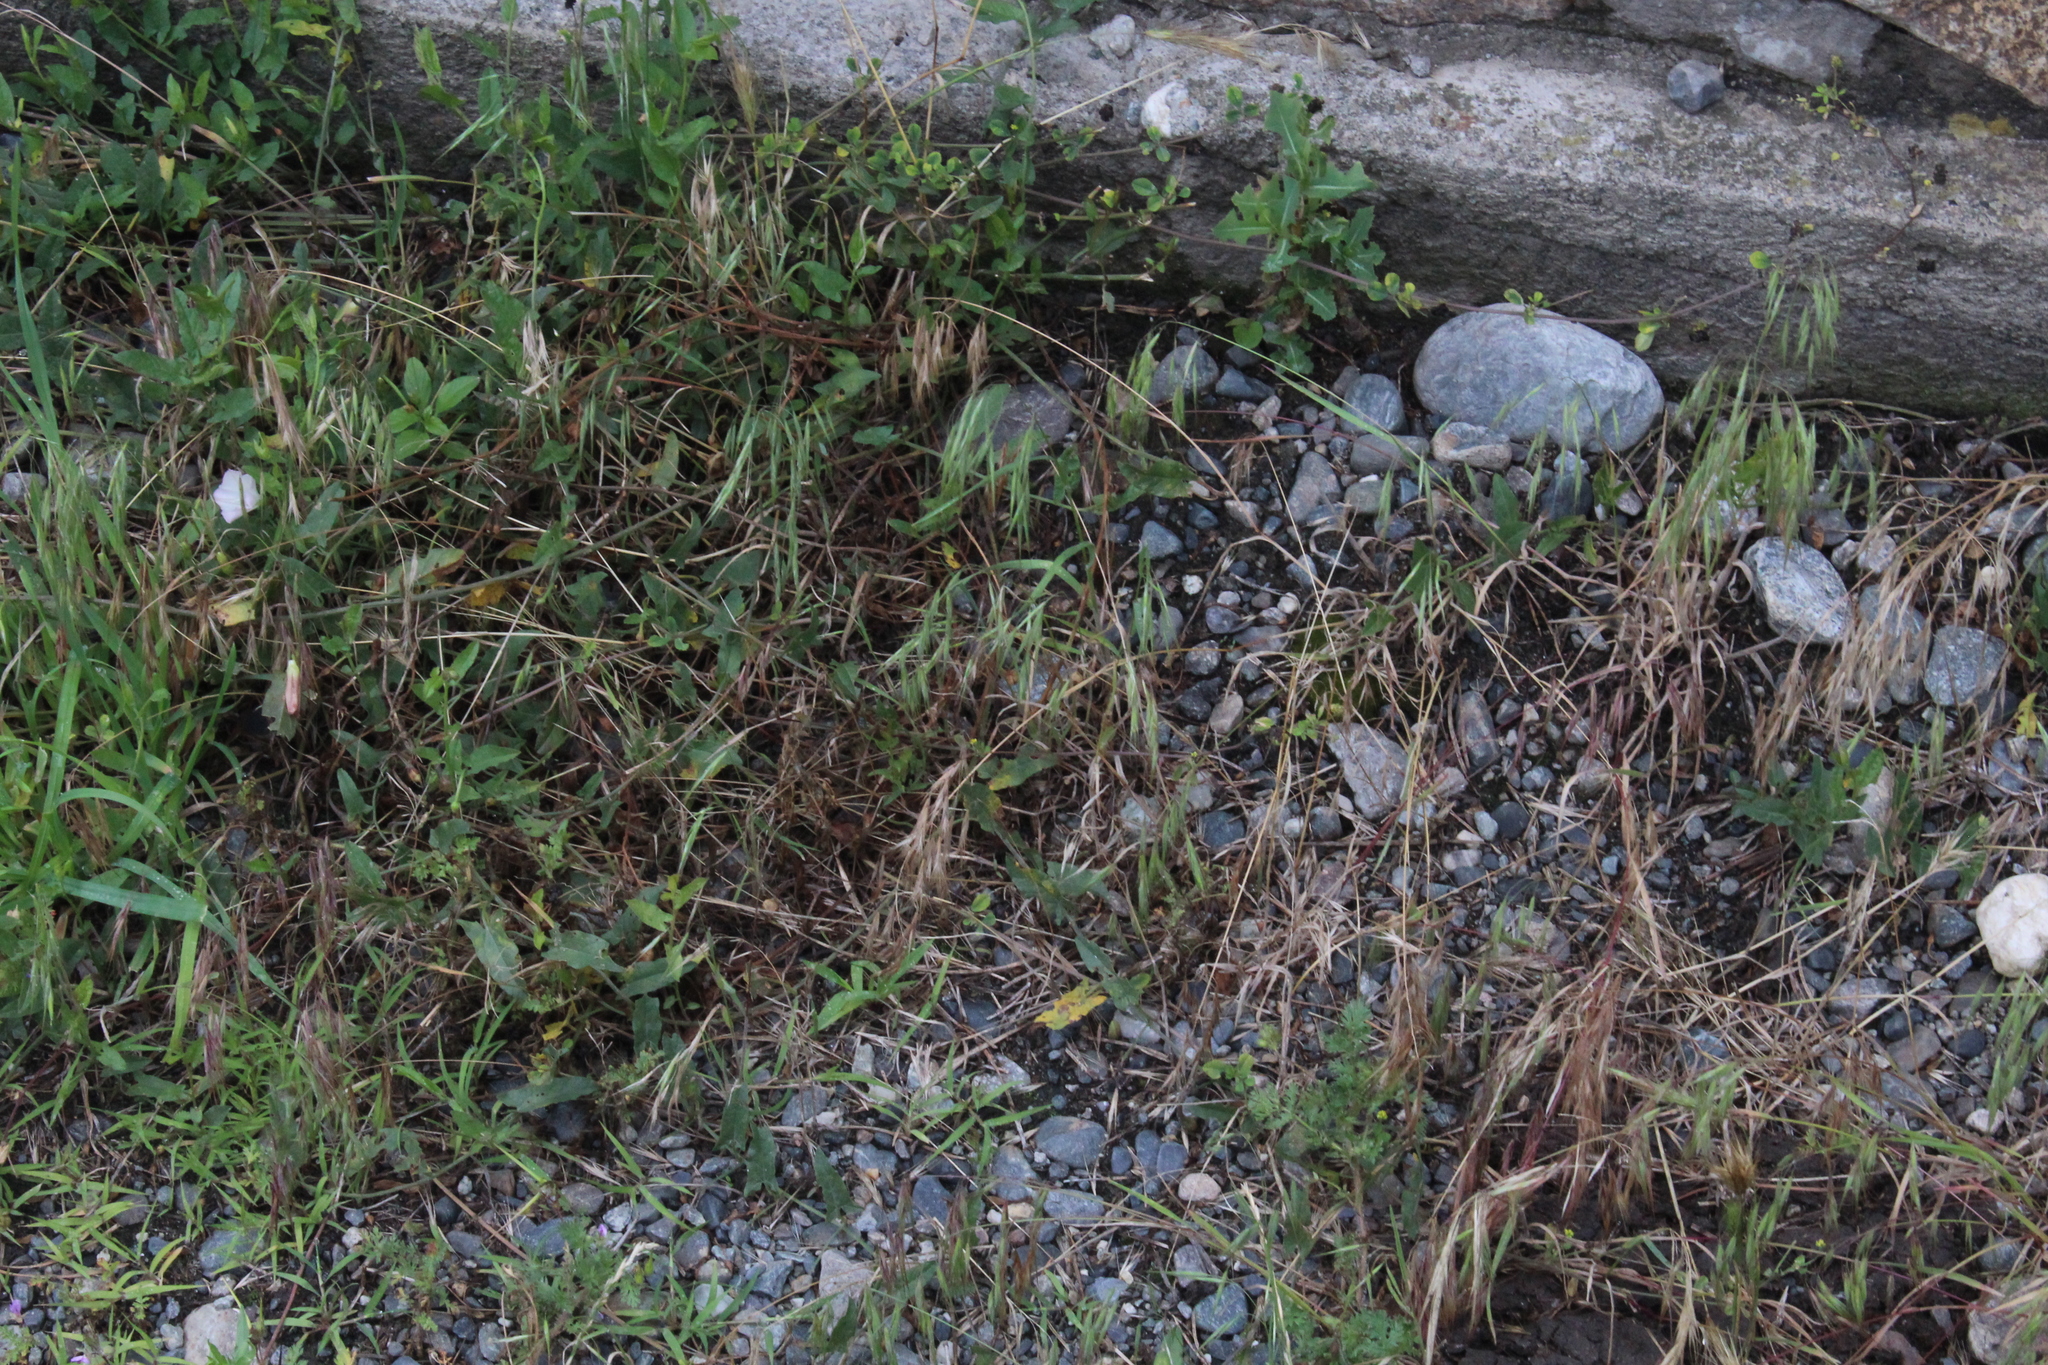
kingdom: Plantae
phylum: Tracheophyta
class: Liliopsida
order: Poales
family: Poaceae
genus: Bromus
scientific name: Bromus tectorum
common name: Cheatgrass
